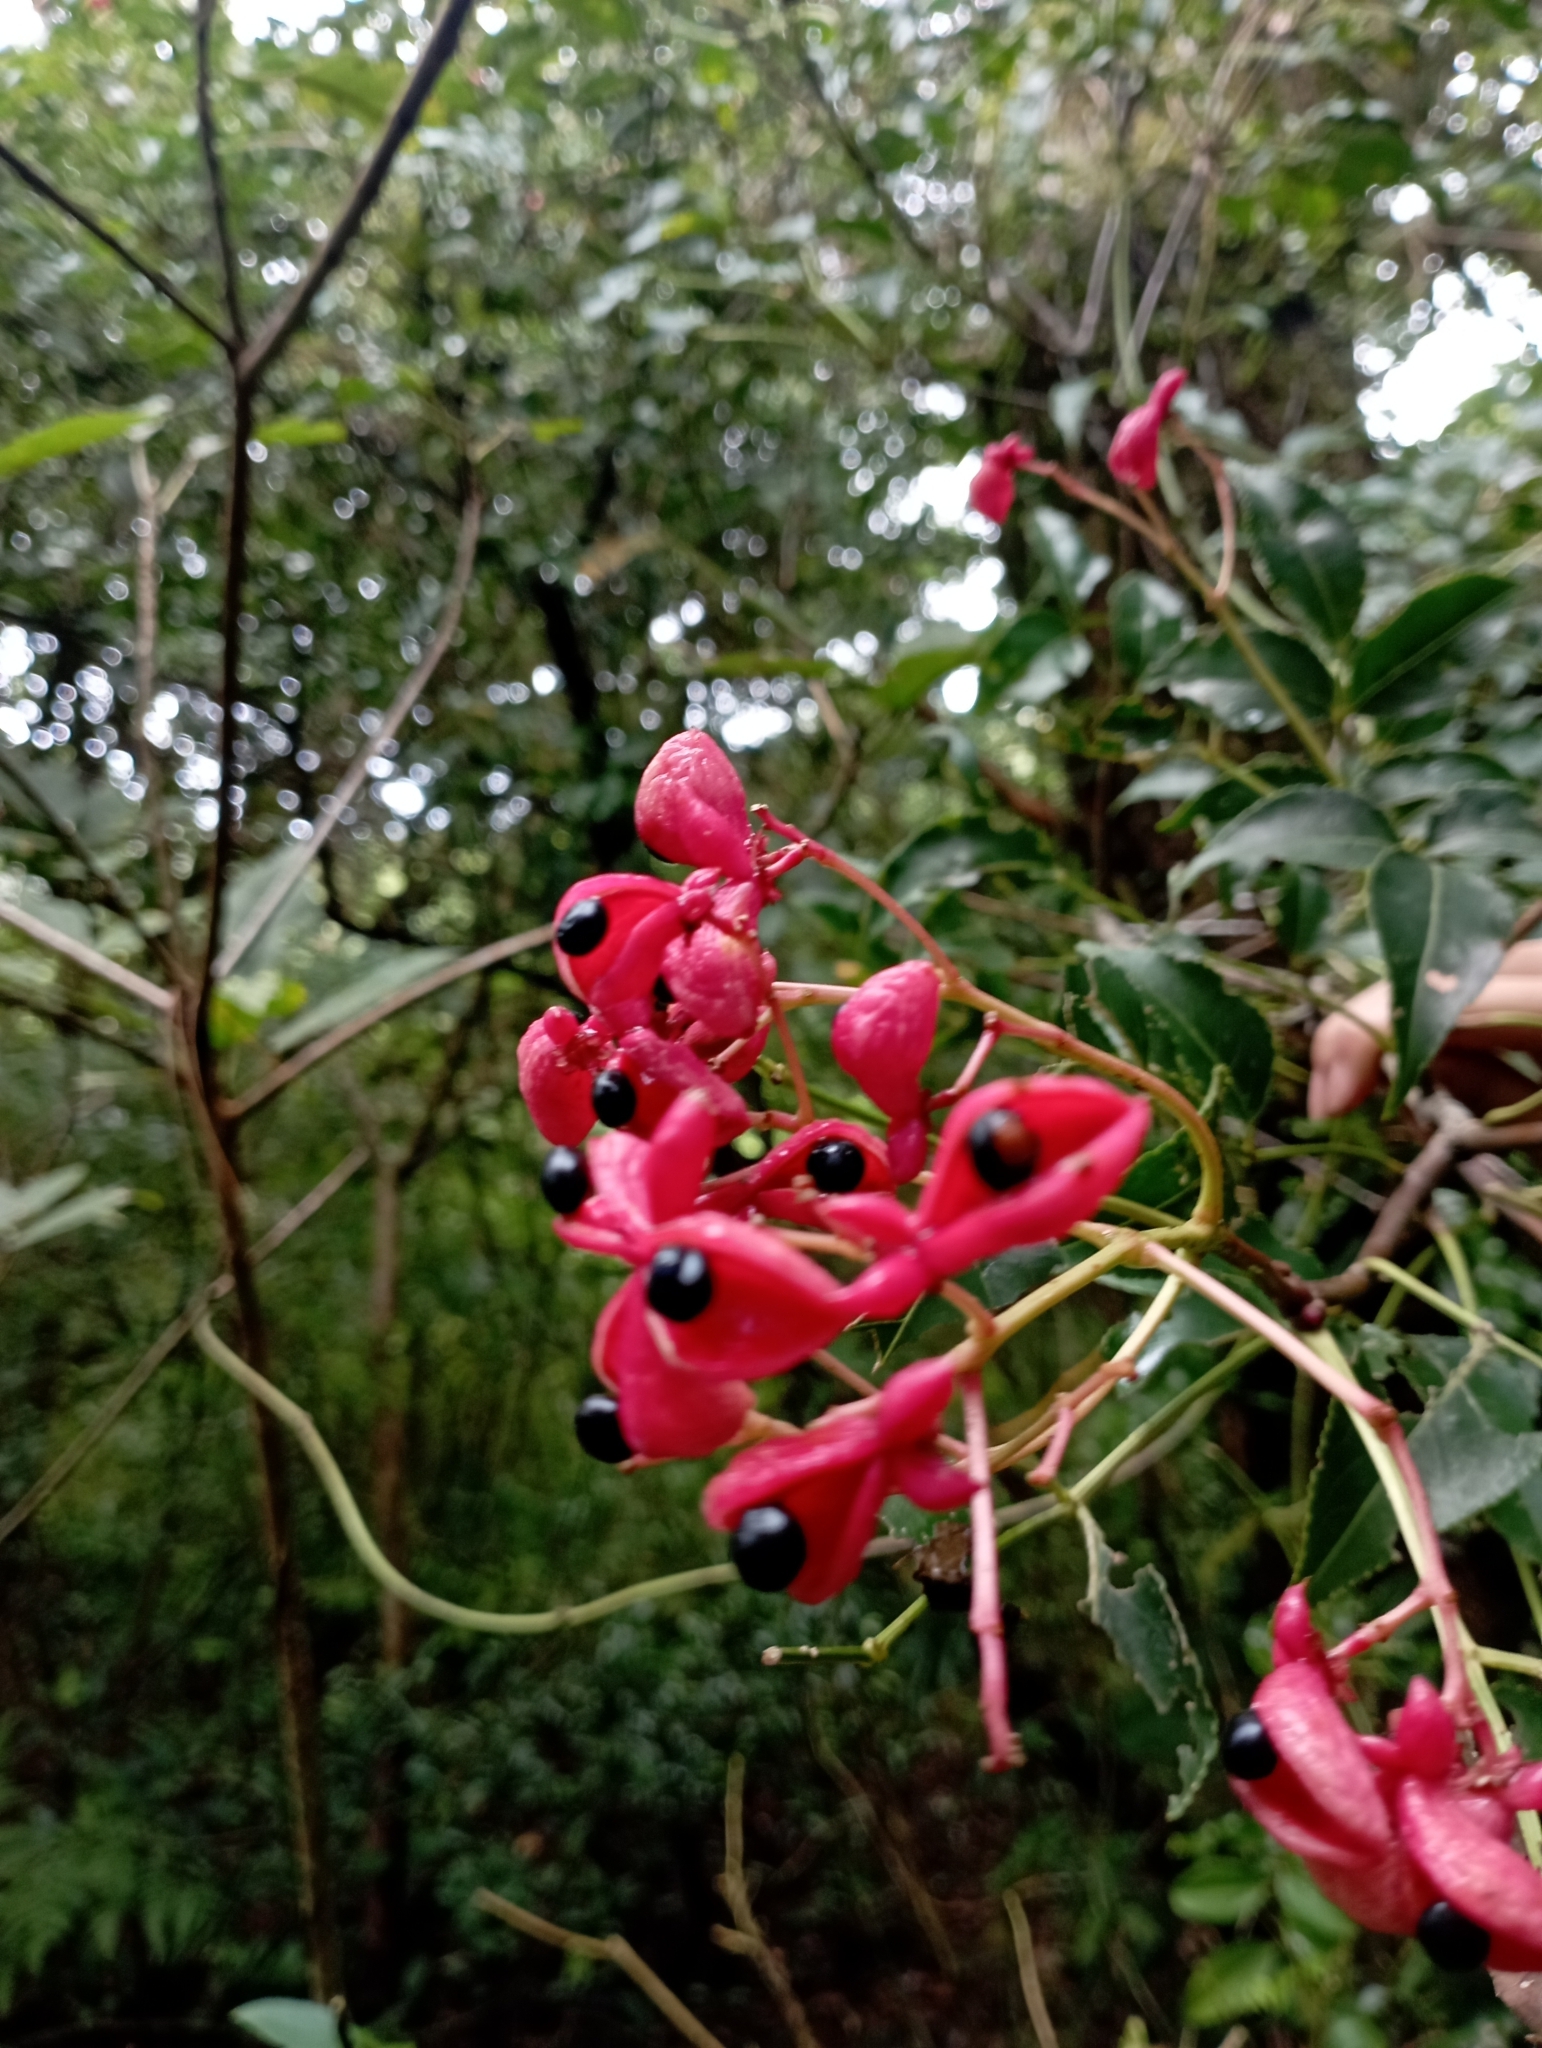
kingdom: Plantae
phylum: Tracheophyta
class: Magnoliopsida
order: Crossosomatales
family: Staphyleaceae
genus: Staphylea
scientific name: Staphylea japonica
